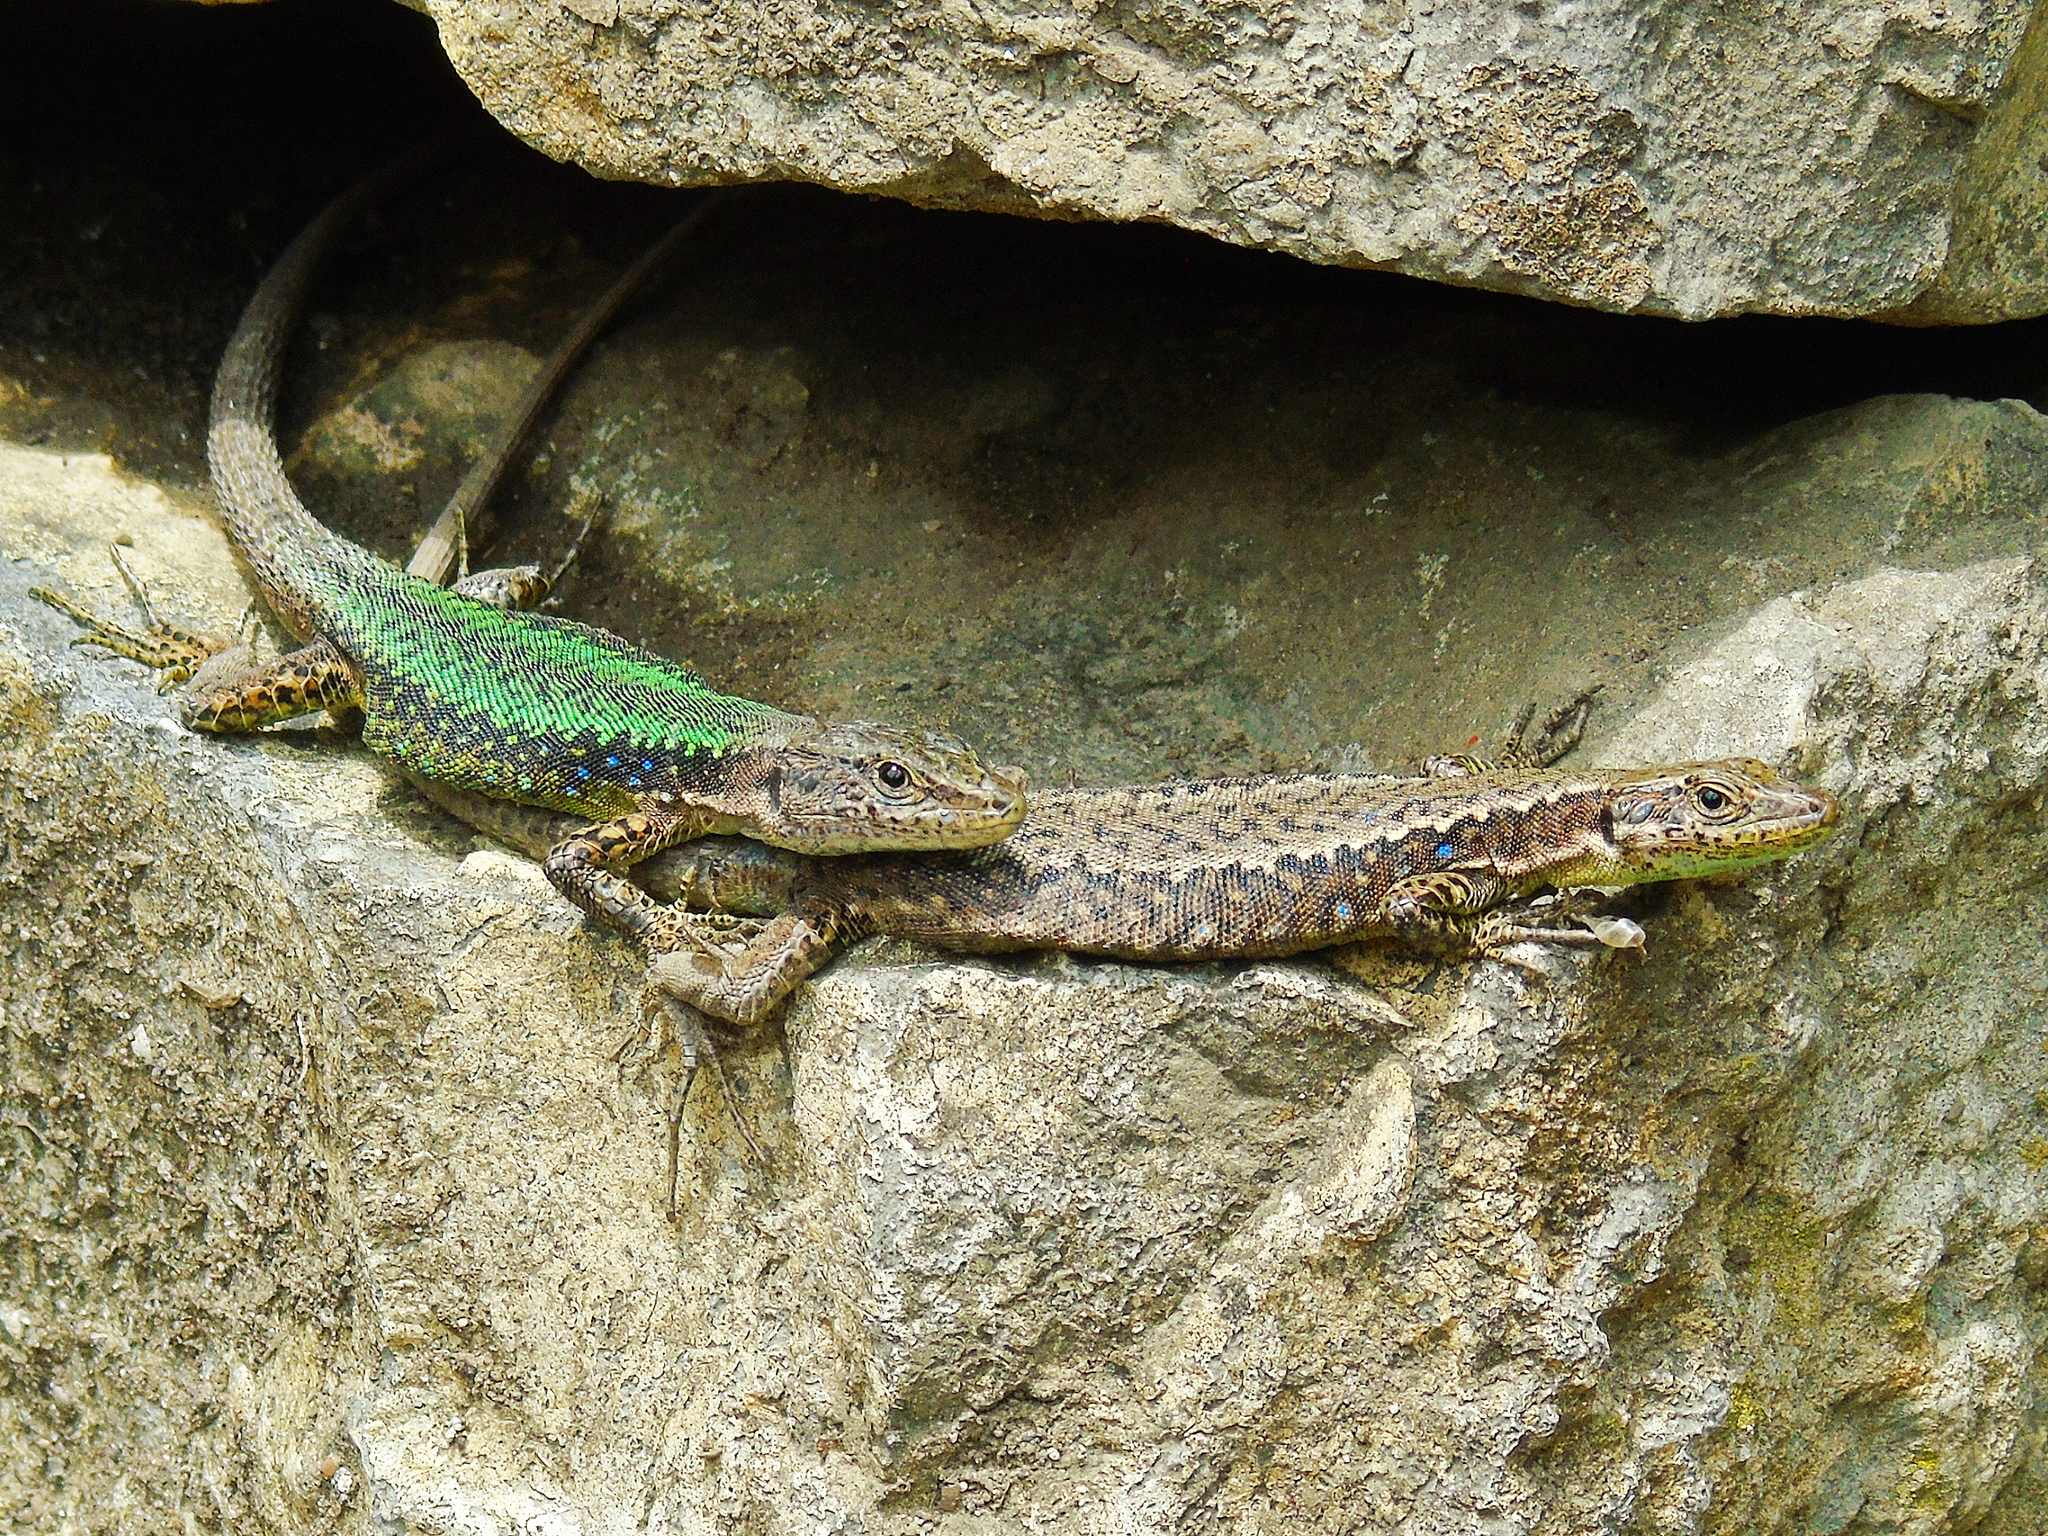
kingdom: Animalia
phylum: Chordata
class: Squamata
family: Lacertidae
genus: Darevskia
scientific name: Darevskia mixta
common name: Ajarian lizard
